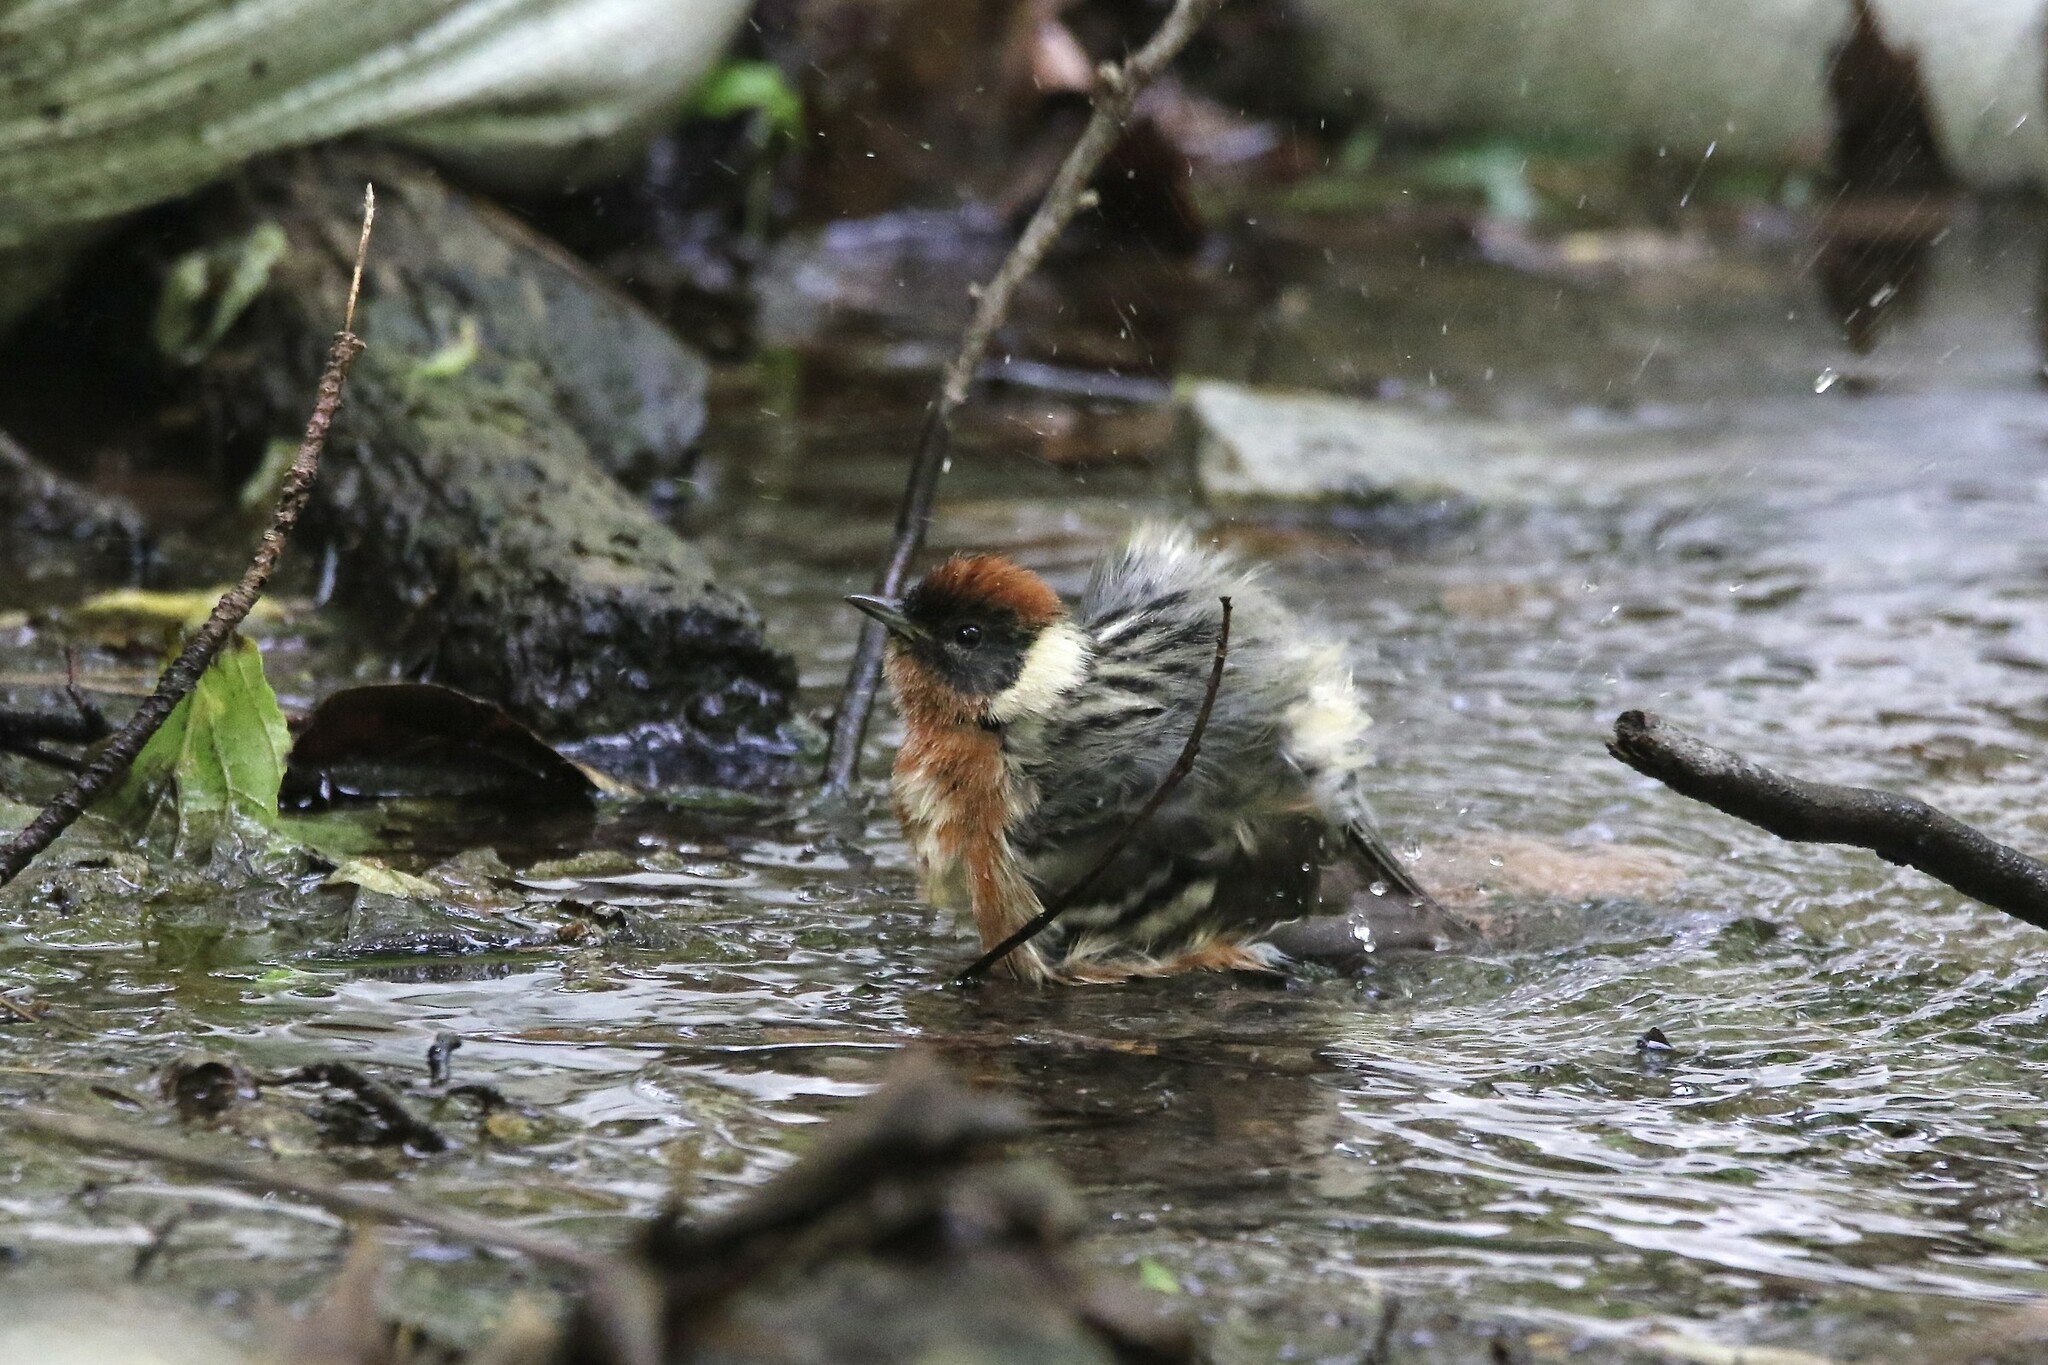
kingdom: Animalia
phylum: Chordata
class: Aves
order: Passeriformes
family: Parulidae
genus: Setophaga
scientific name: Setophaga castanea
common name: Bay-breasted warbler
